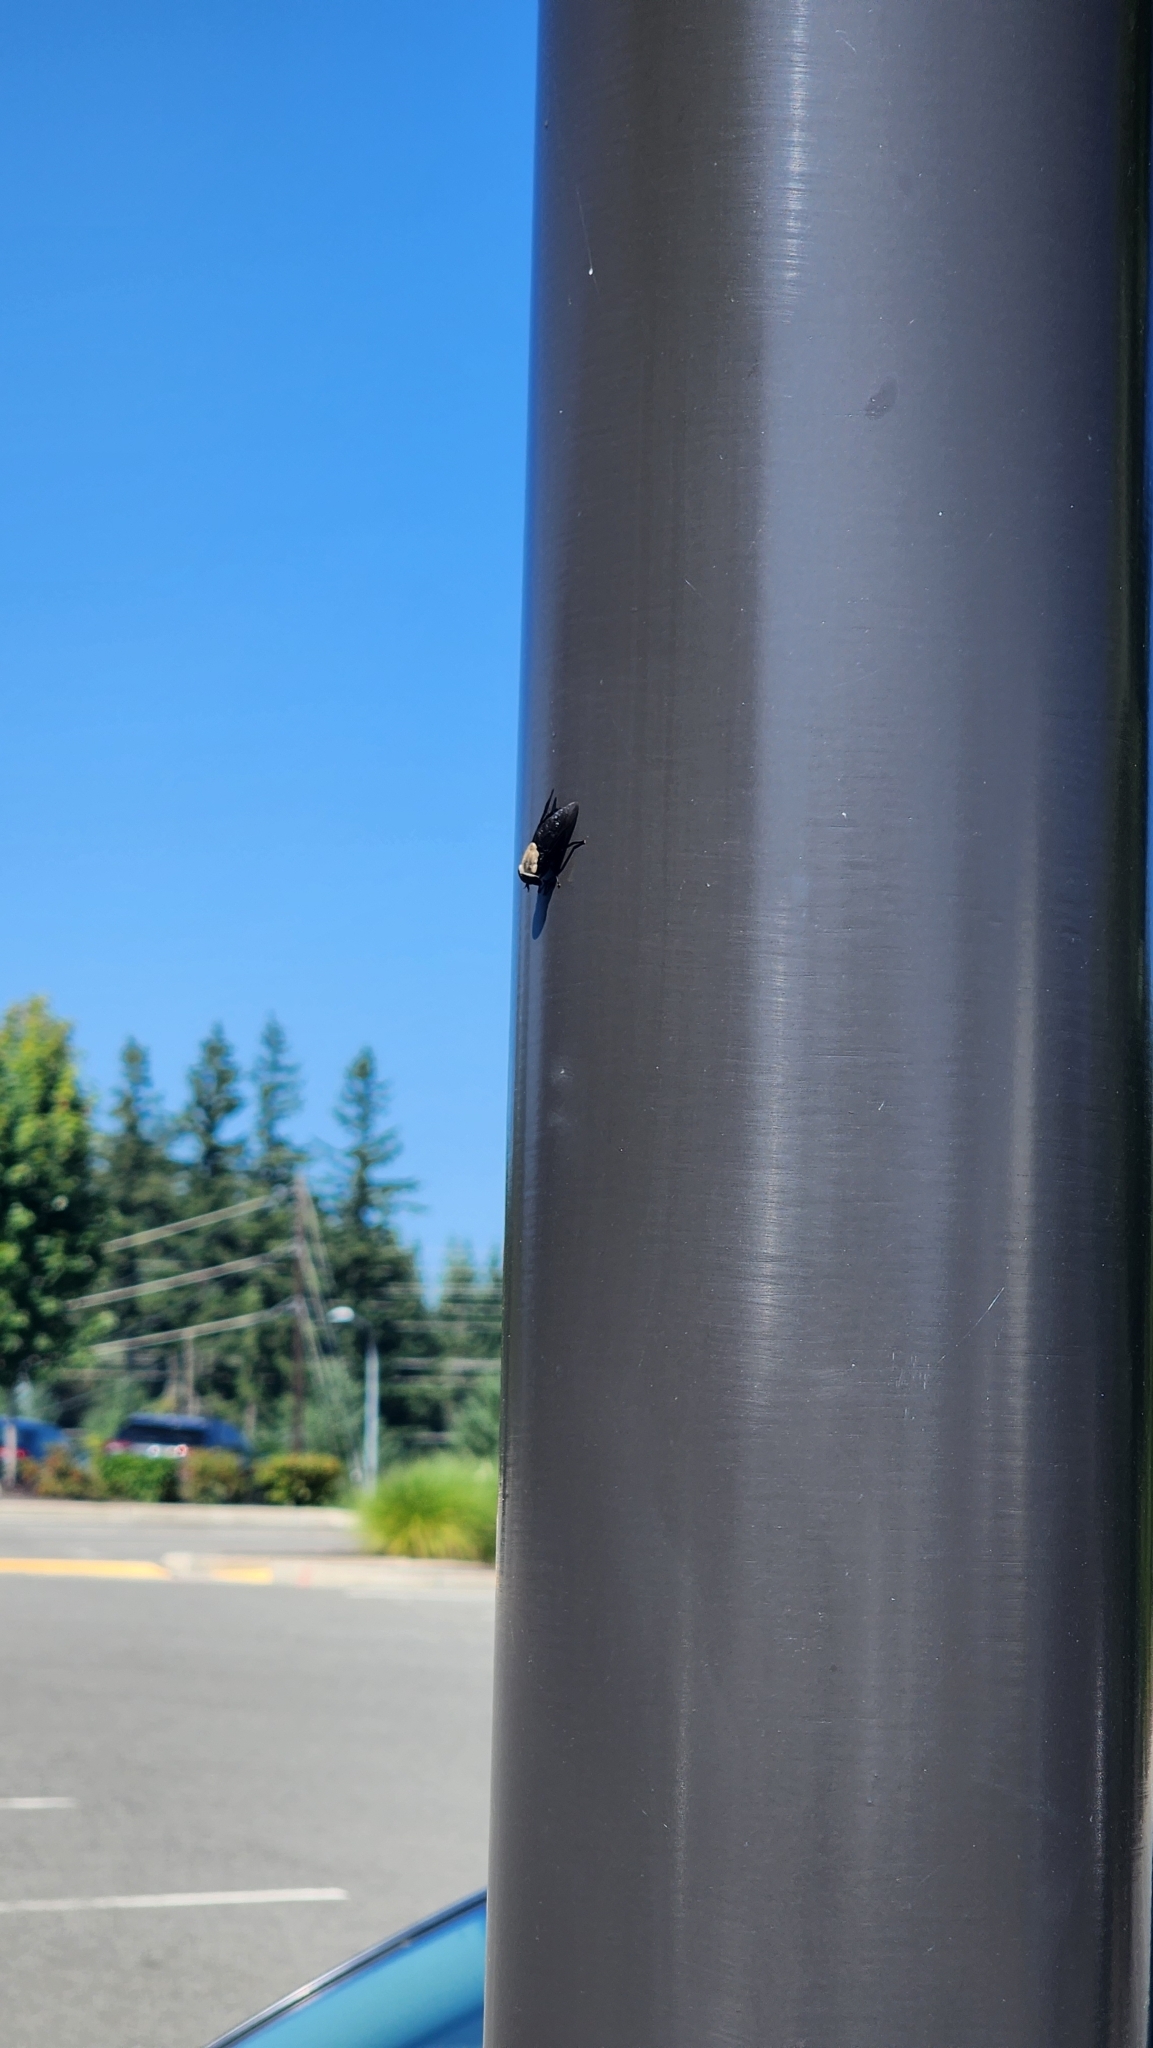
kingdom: Animalia
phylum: Arthropoda
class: Insecta
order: Diptera
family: Tabanidae
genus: Tabanus
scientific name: Tabanus punctifer
